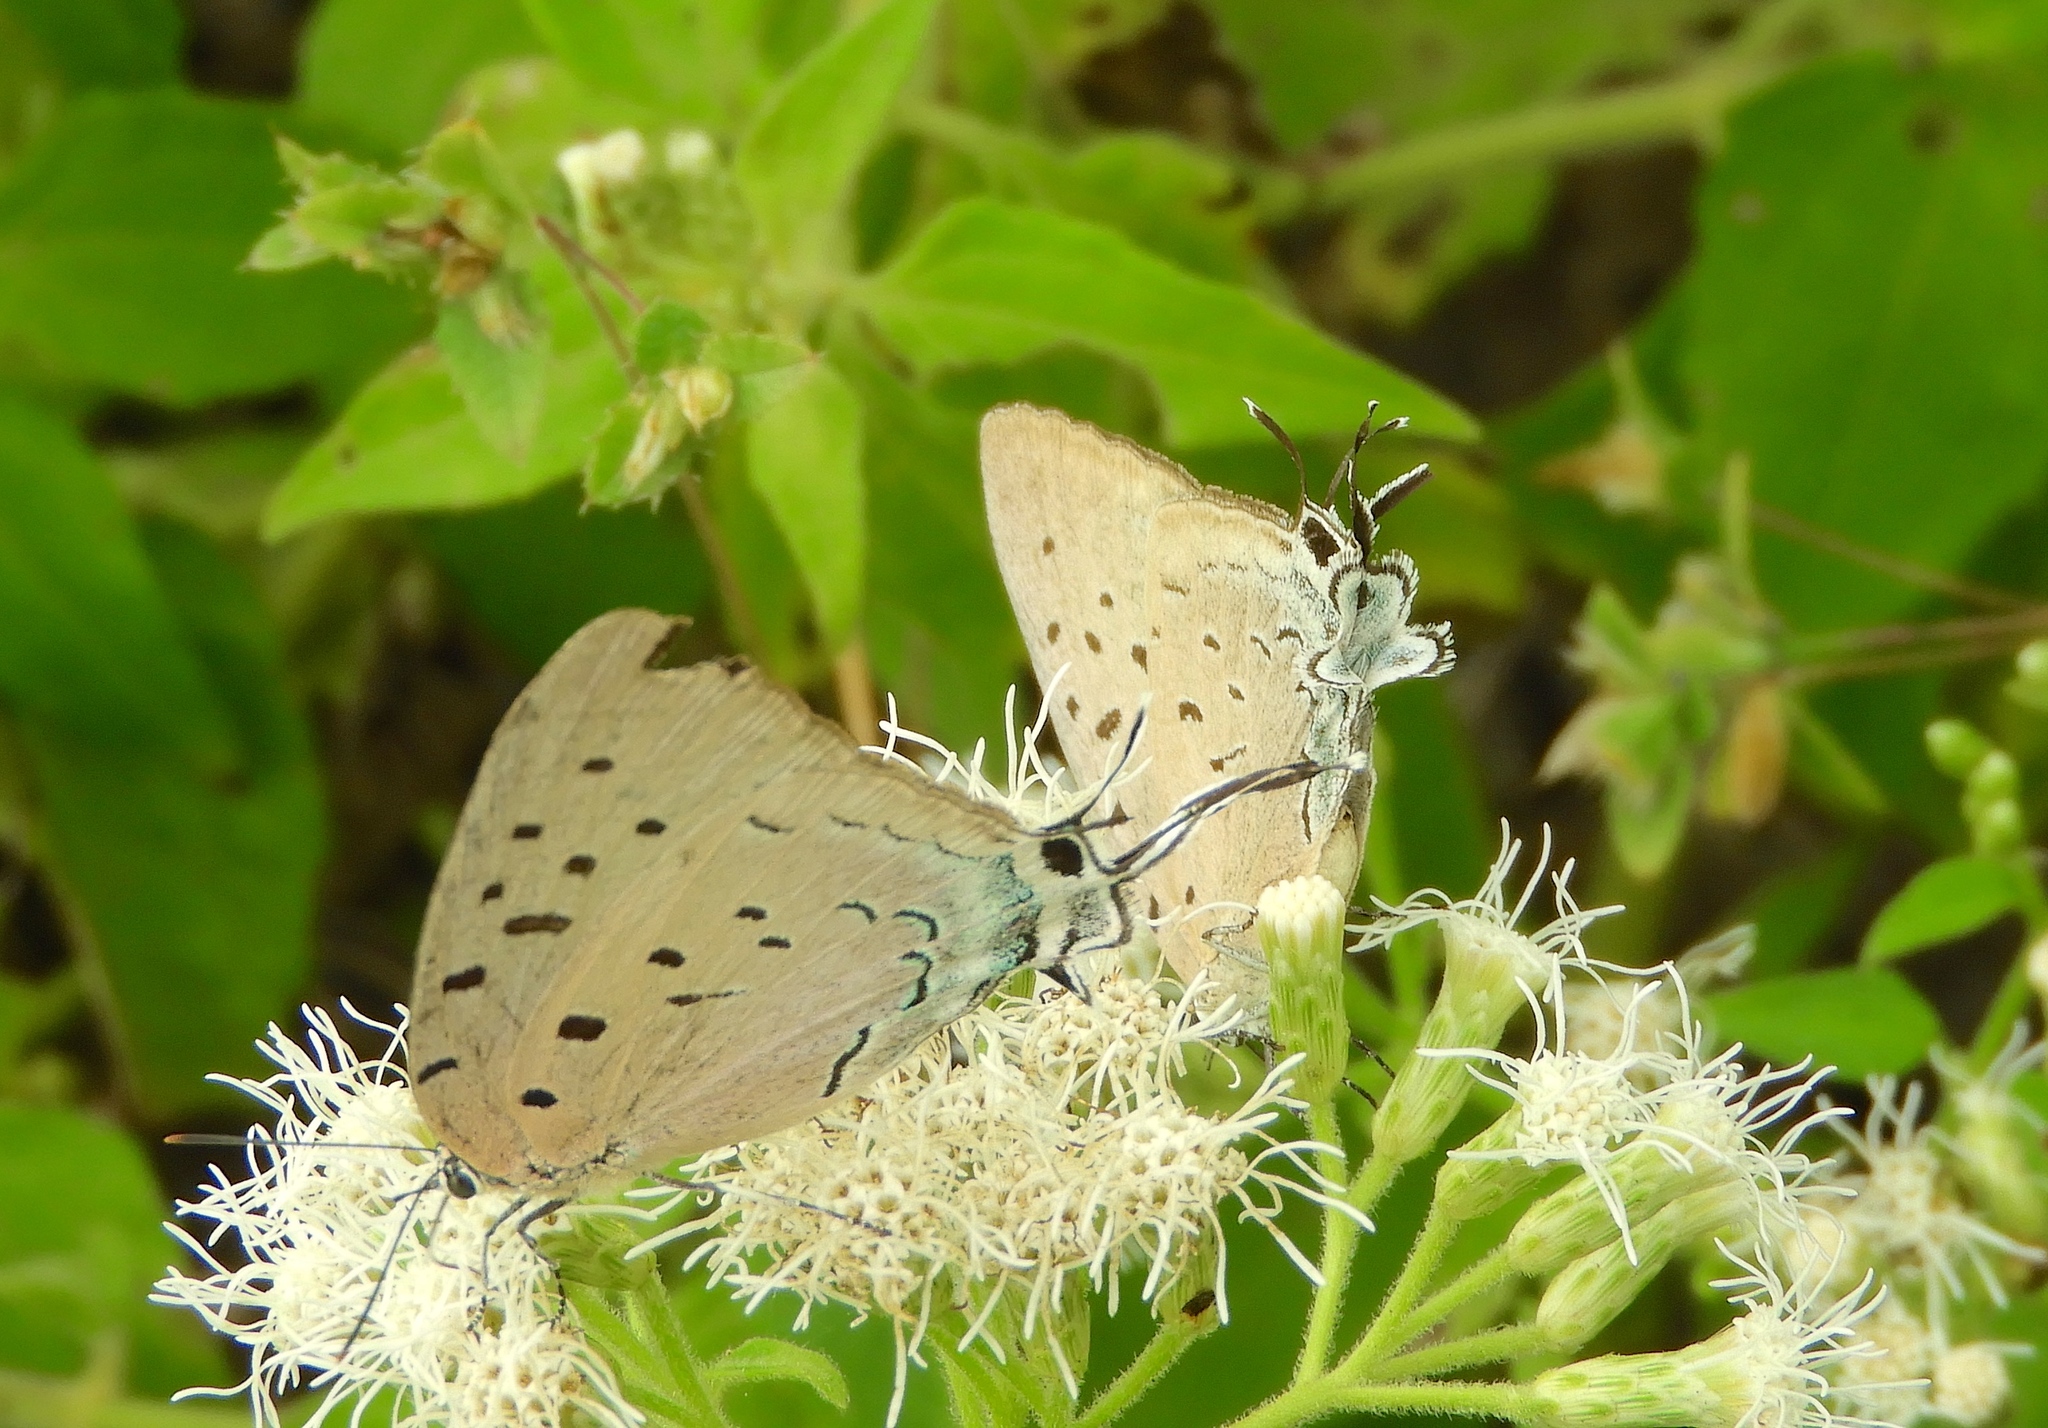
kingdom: Animalia
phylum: Arthropoda
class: Insecta
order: Lepidoptera
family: Lycaenidae
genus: Pseudolycaena
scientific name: Pseudolycaena damo
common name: Sky-blue hairstreak
